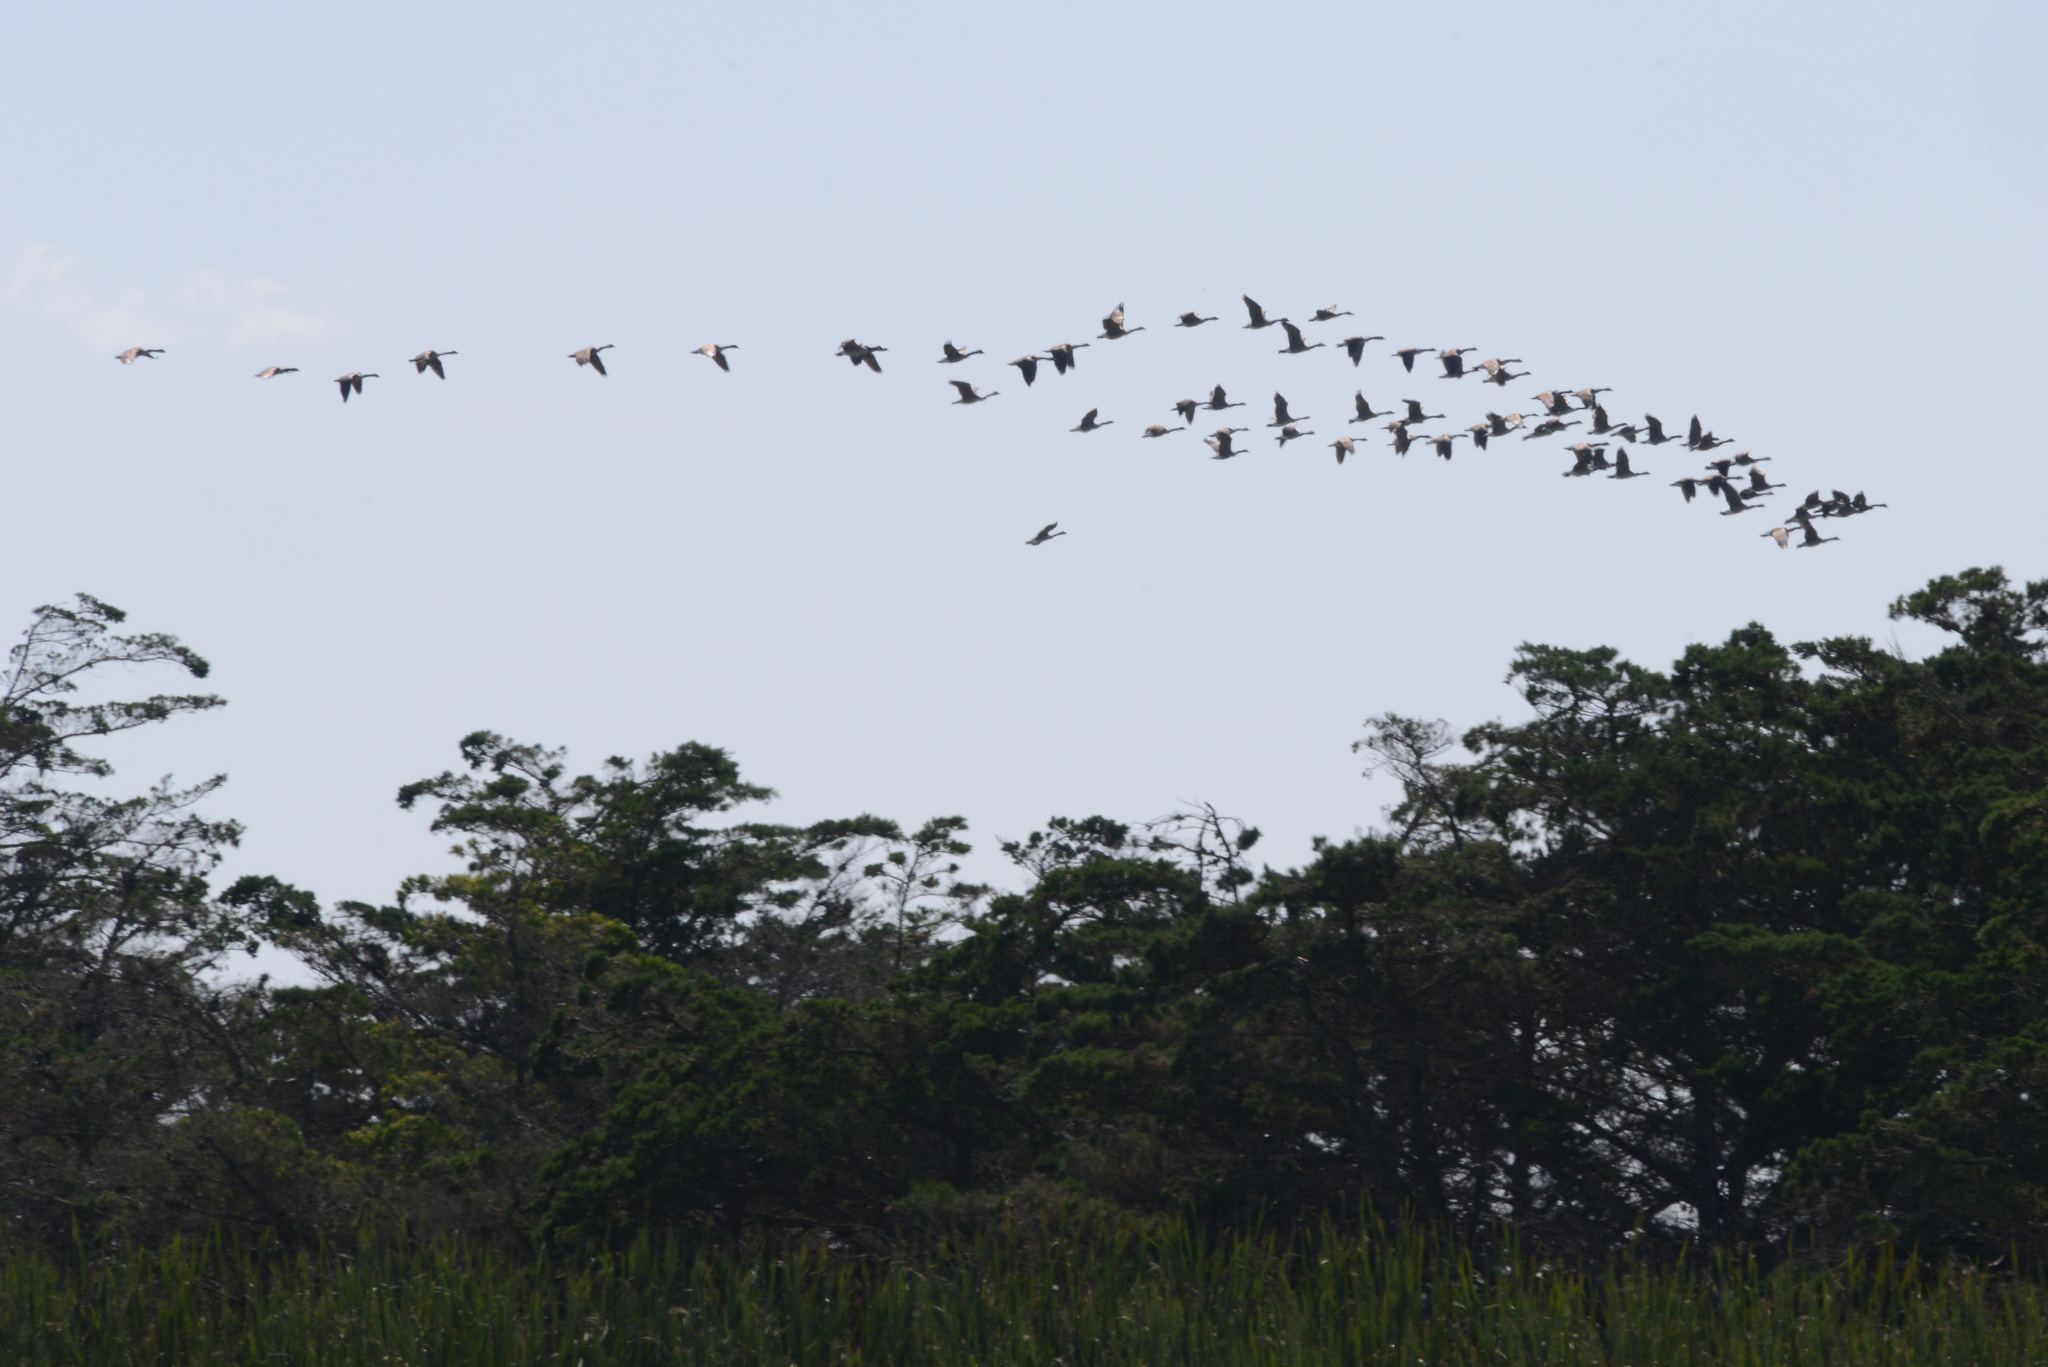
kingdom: Animalia
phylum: Chordata
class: Aves
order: Anseriformes
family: Anatidae
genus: Branta
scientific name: Branta canadensis
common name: Canada goose
